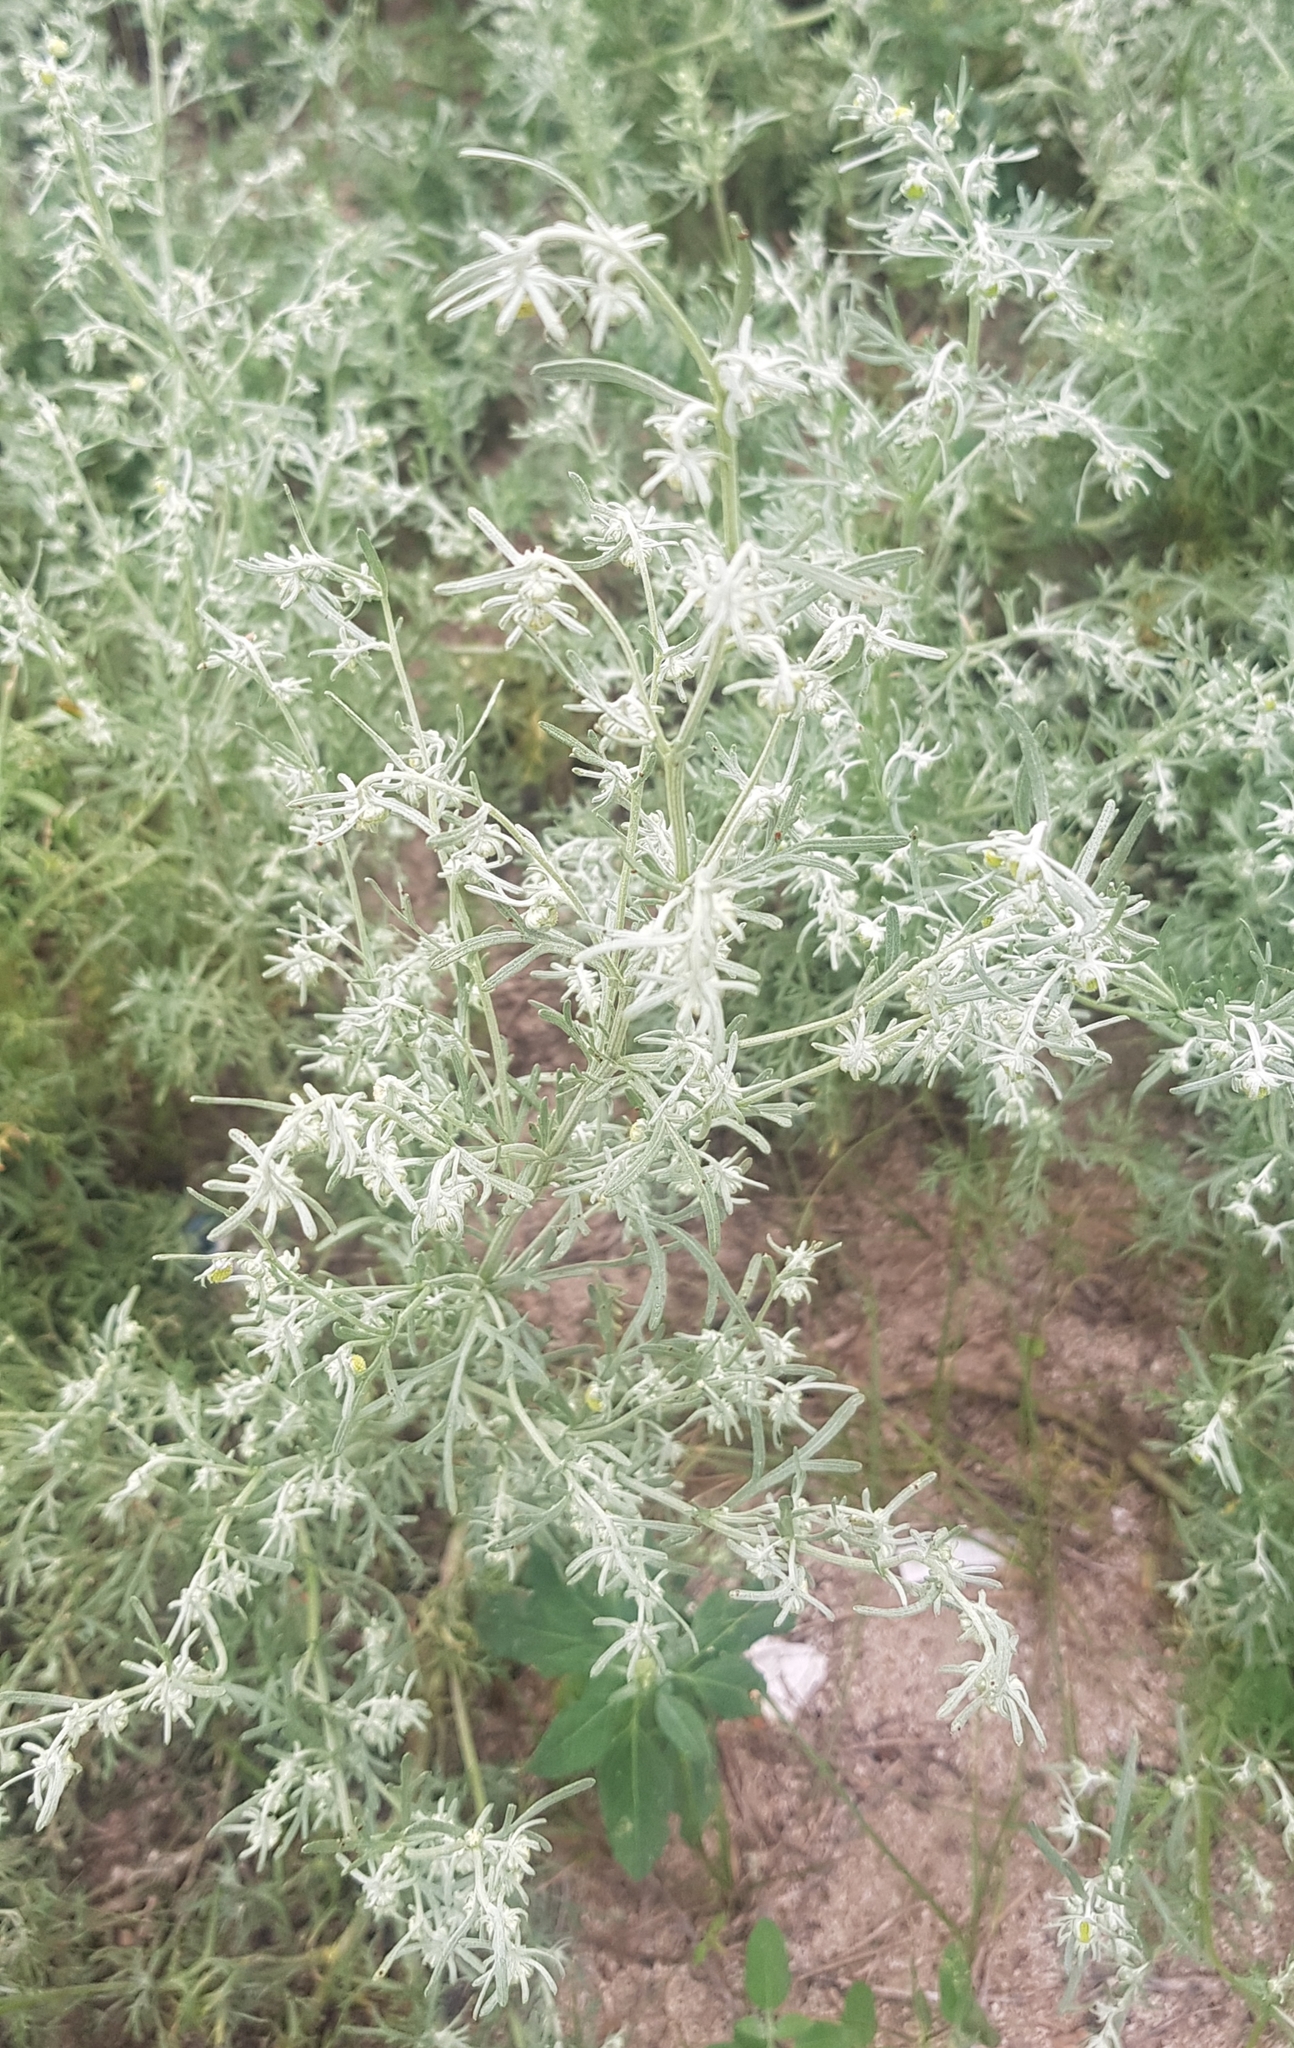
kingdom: Plantae
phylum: Tracheophyta
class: Magnoliopsida
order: Asterales
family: Asteraceae
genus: Artemisia
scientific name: Artemisia sieversiana
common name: Sieversian wormwood
